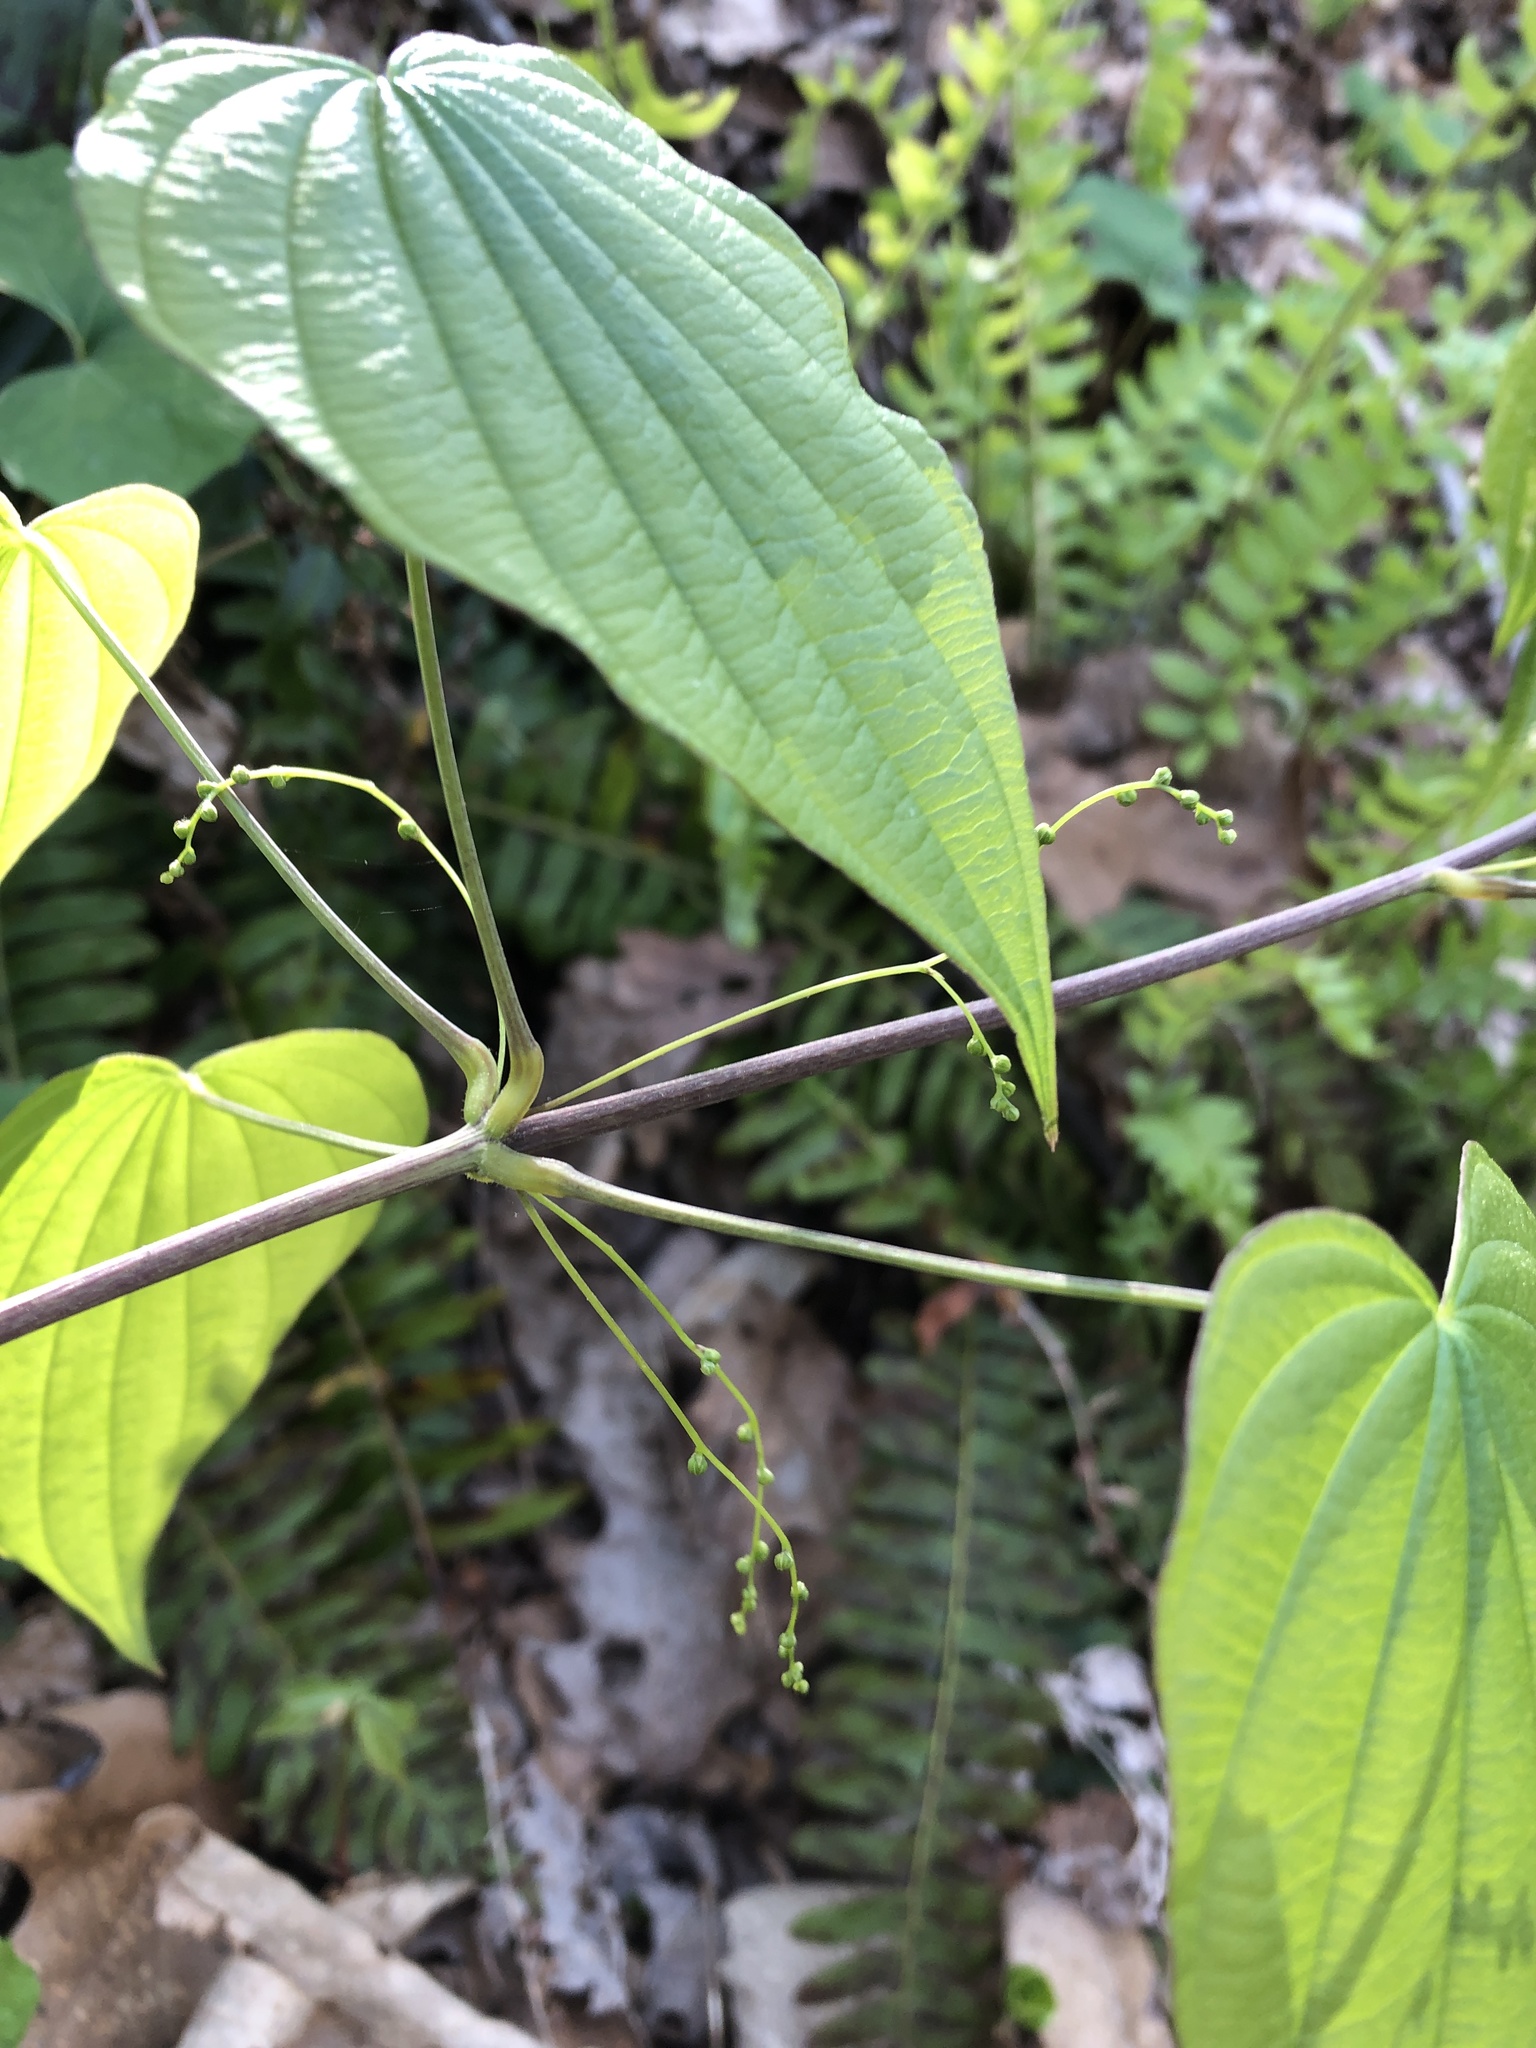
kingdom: Plantae
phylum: Tracheophyta
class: Liliopsida
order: Dioscoreales
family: Dioscoreaceae
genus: Dioscorea
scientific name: Dioscorea villosa
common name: Wild yam
